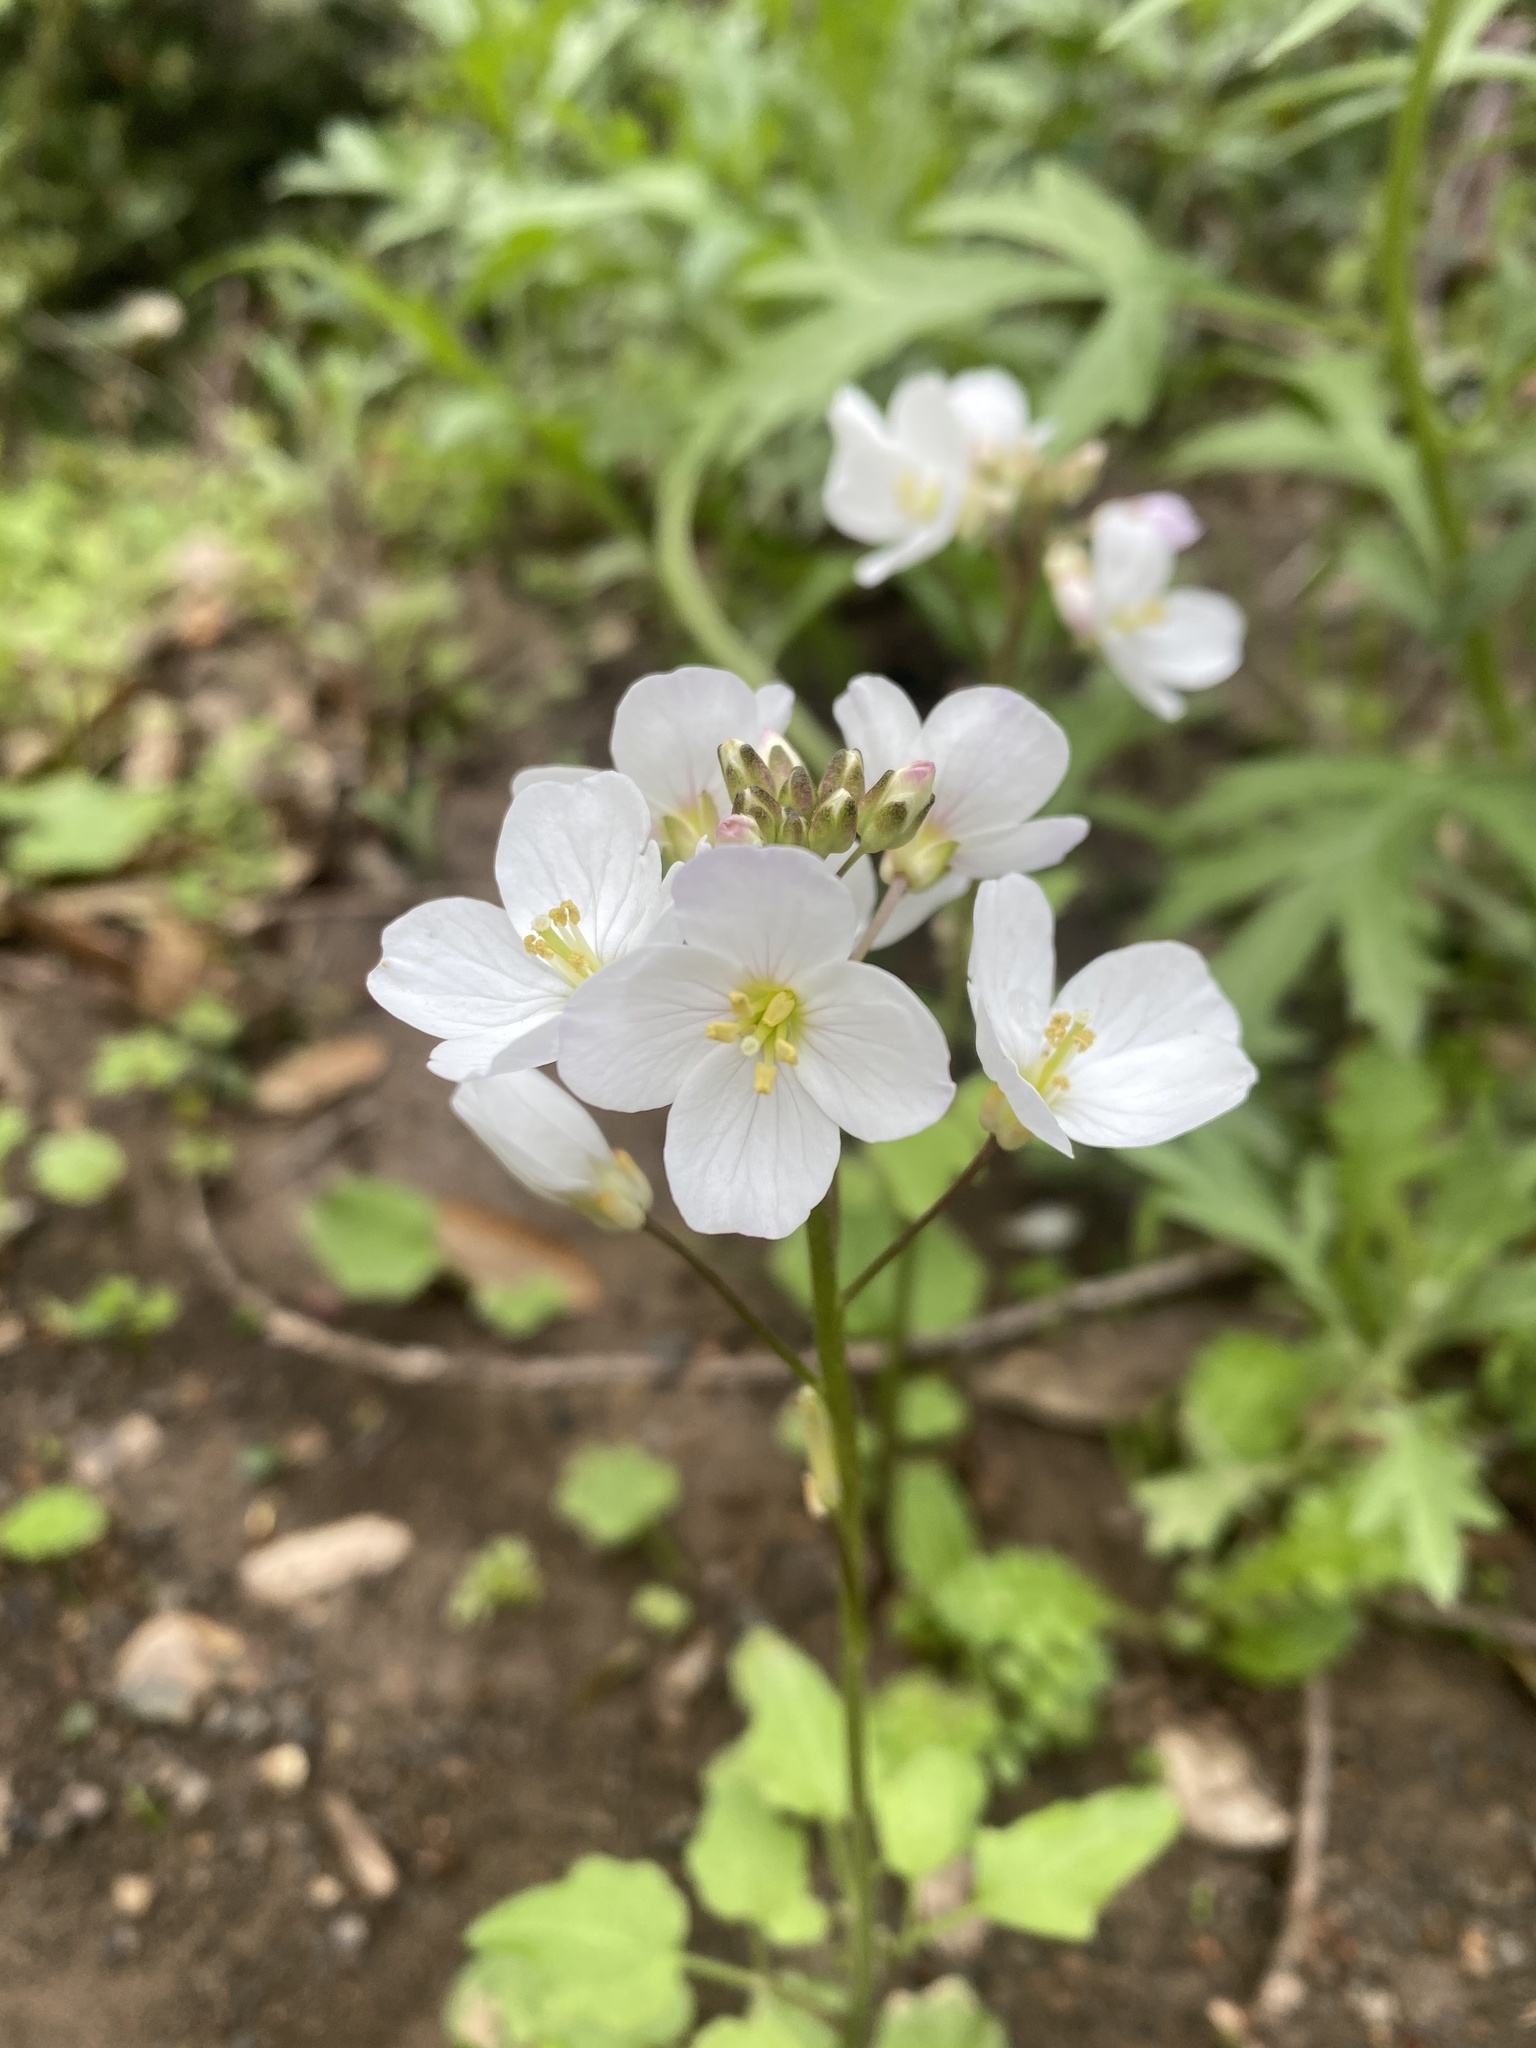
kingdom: Plantae
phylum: Tracheophyta
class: Magnoliopsida
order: Brassicales
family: Brassicaceae
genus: Cardamine
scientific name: Cardamine californica
